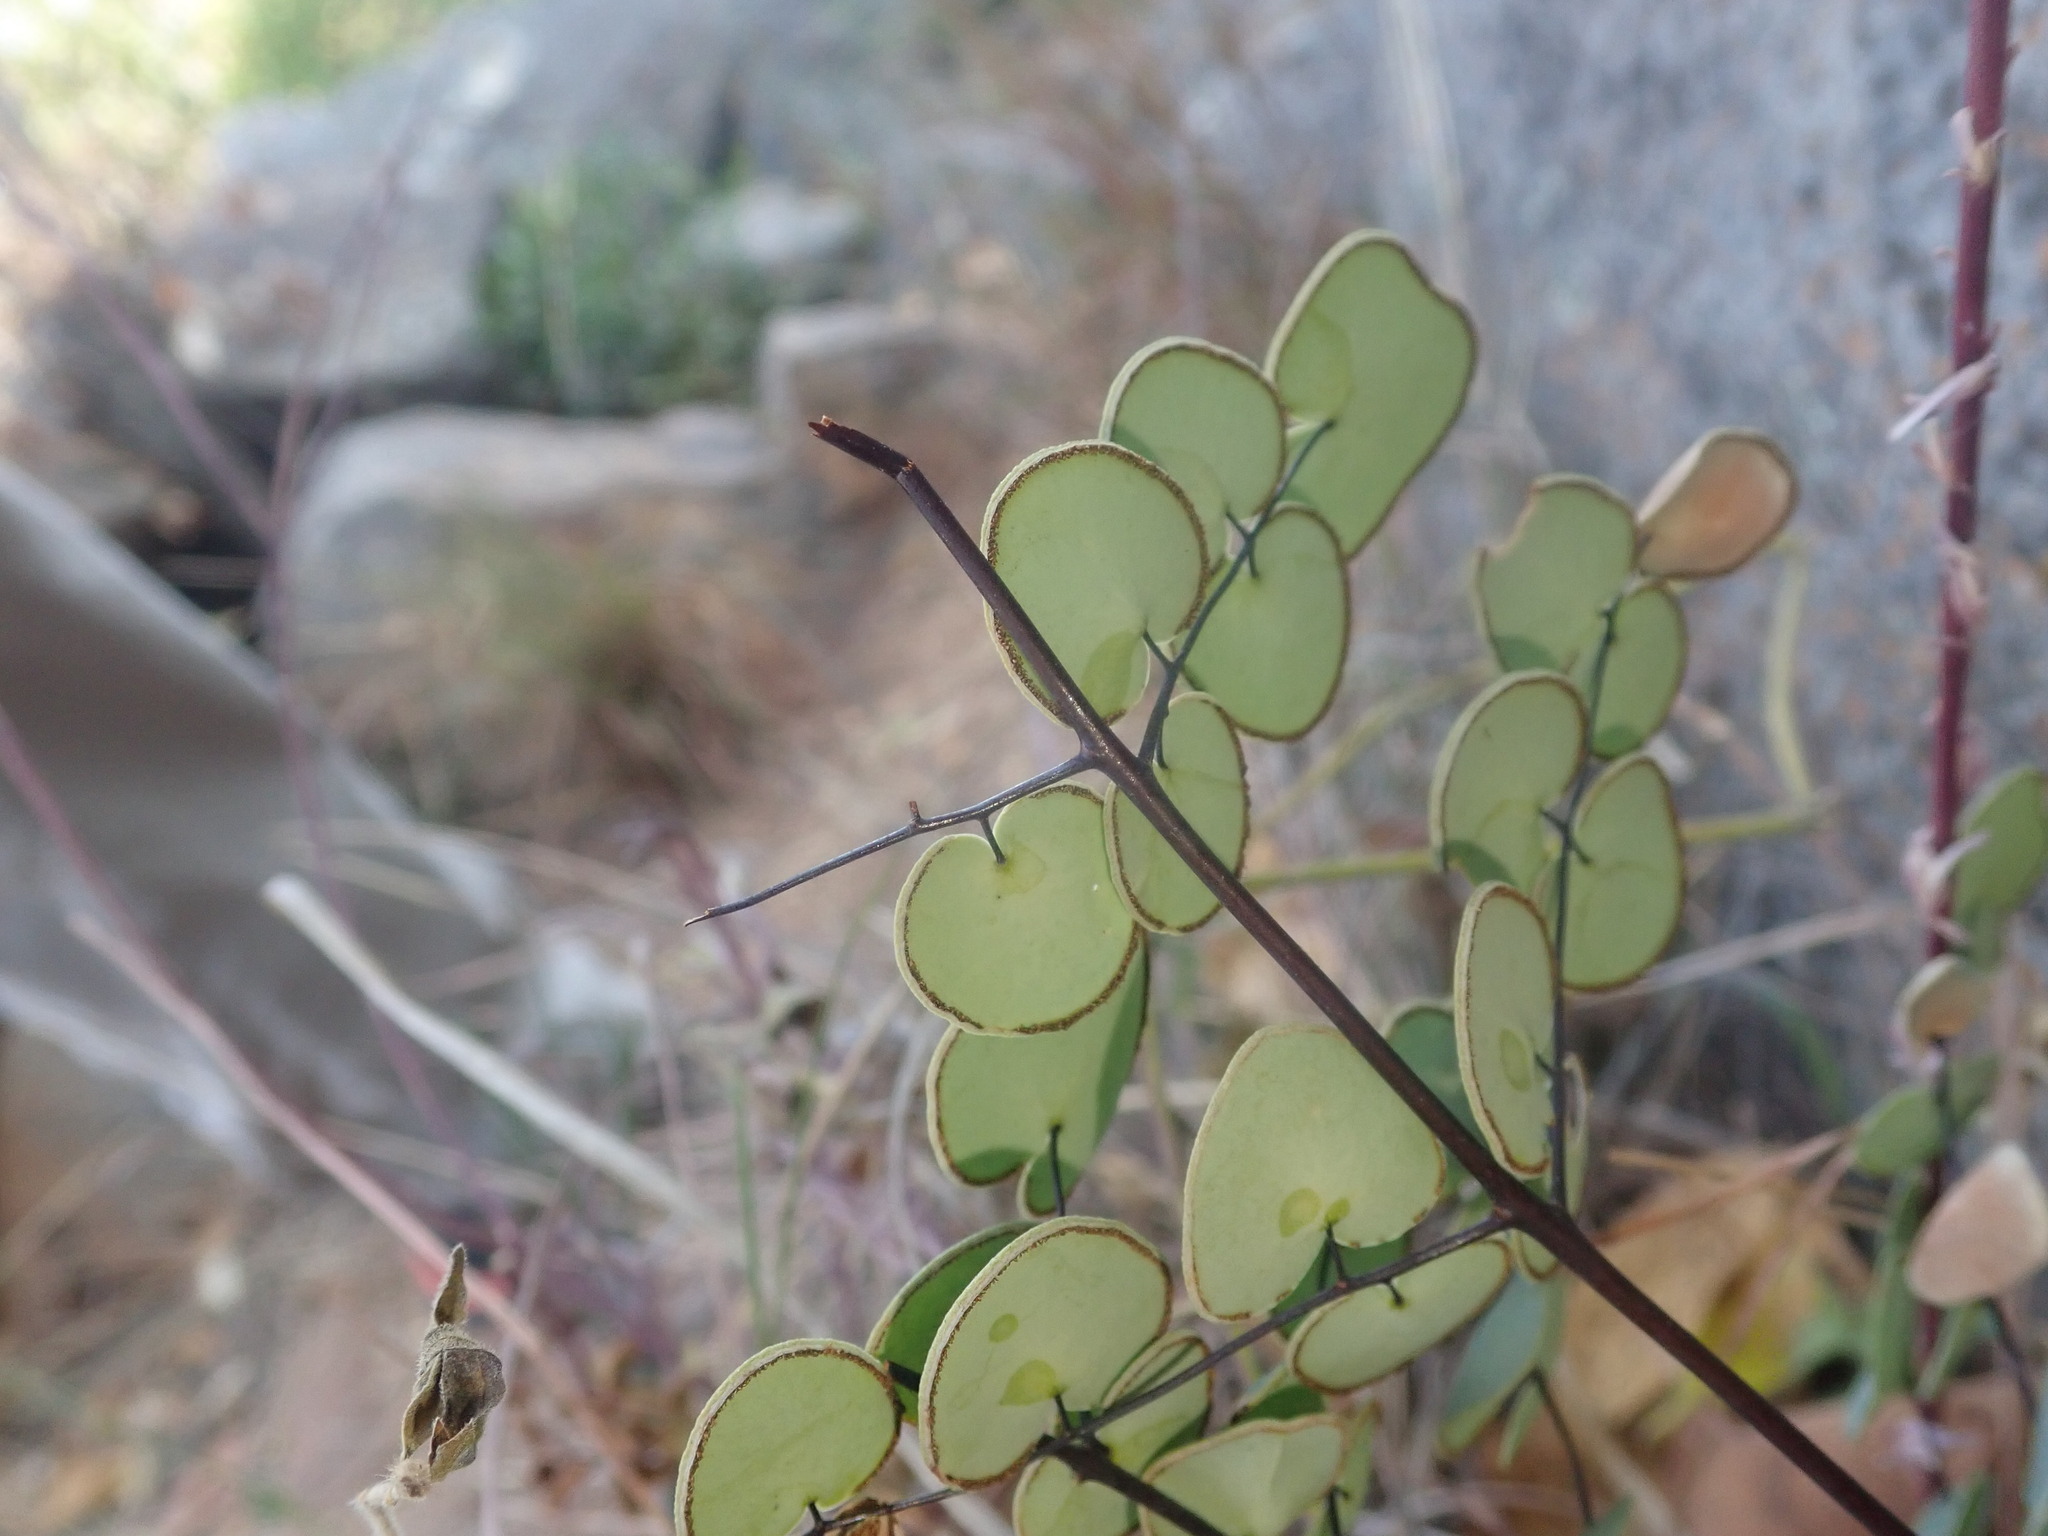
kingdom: Plantae
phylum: Tracheophyta
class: Polypodiopsida
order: Polypodiales
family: Pteridaceae
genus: Pellaea
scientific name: Pellaea calomelanos
